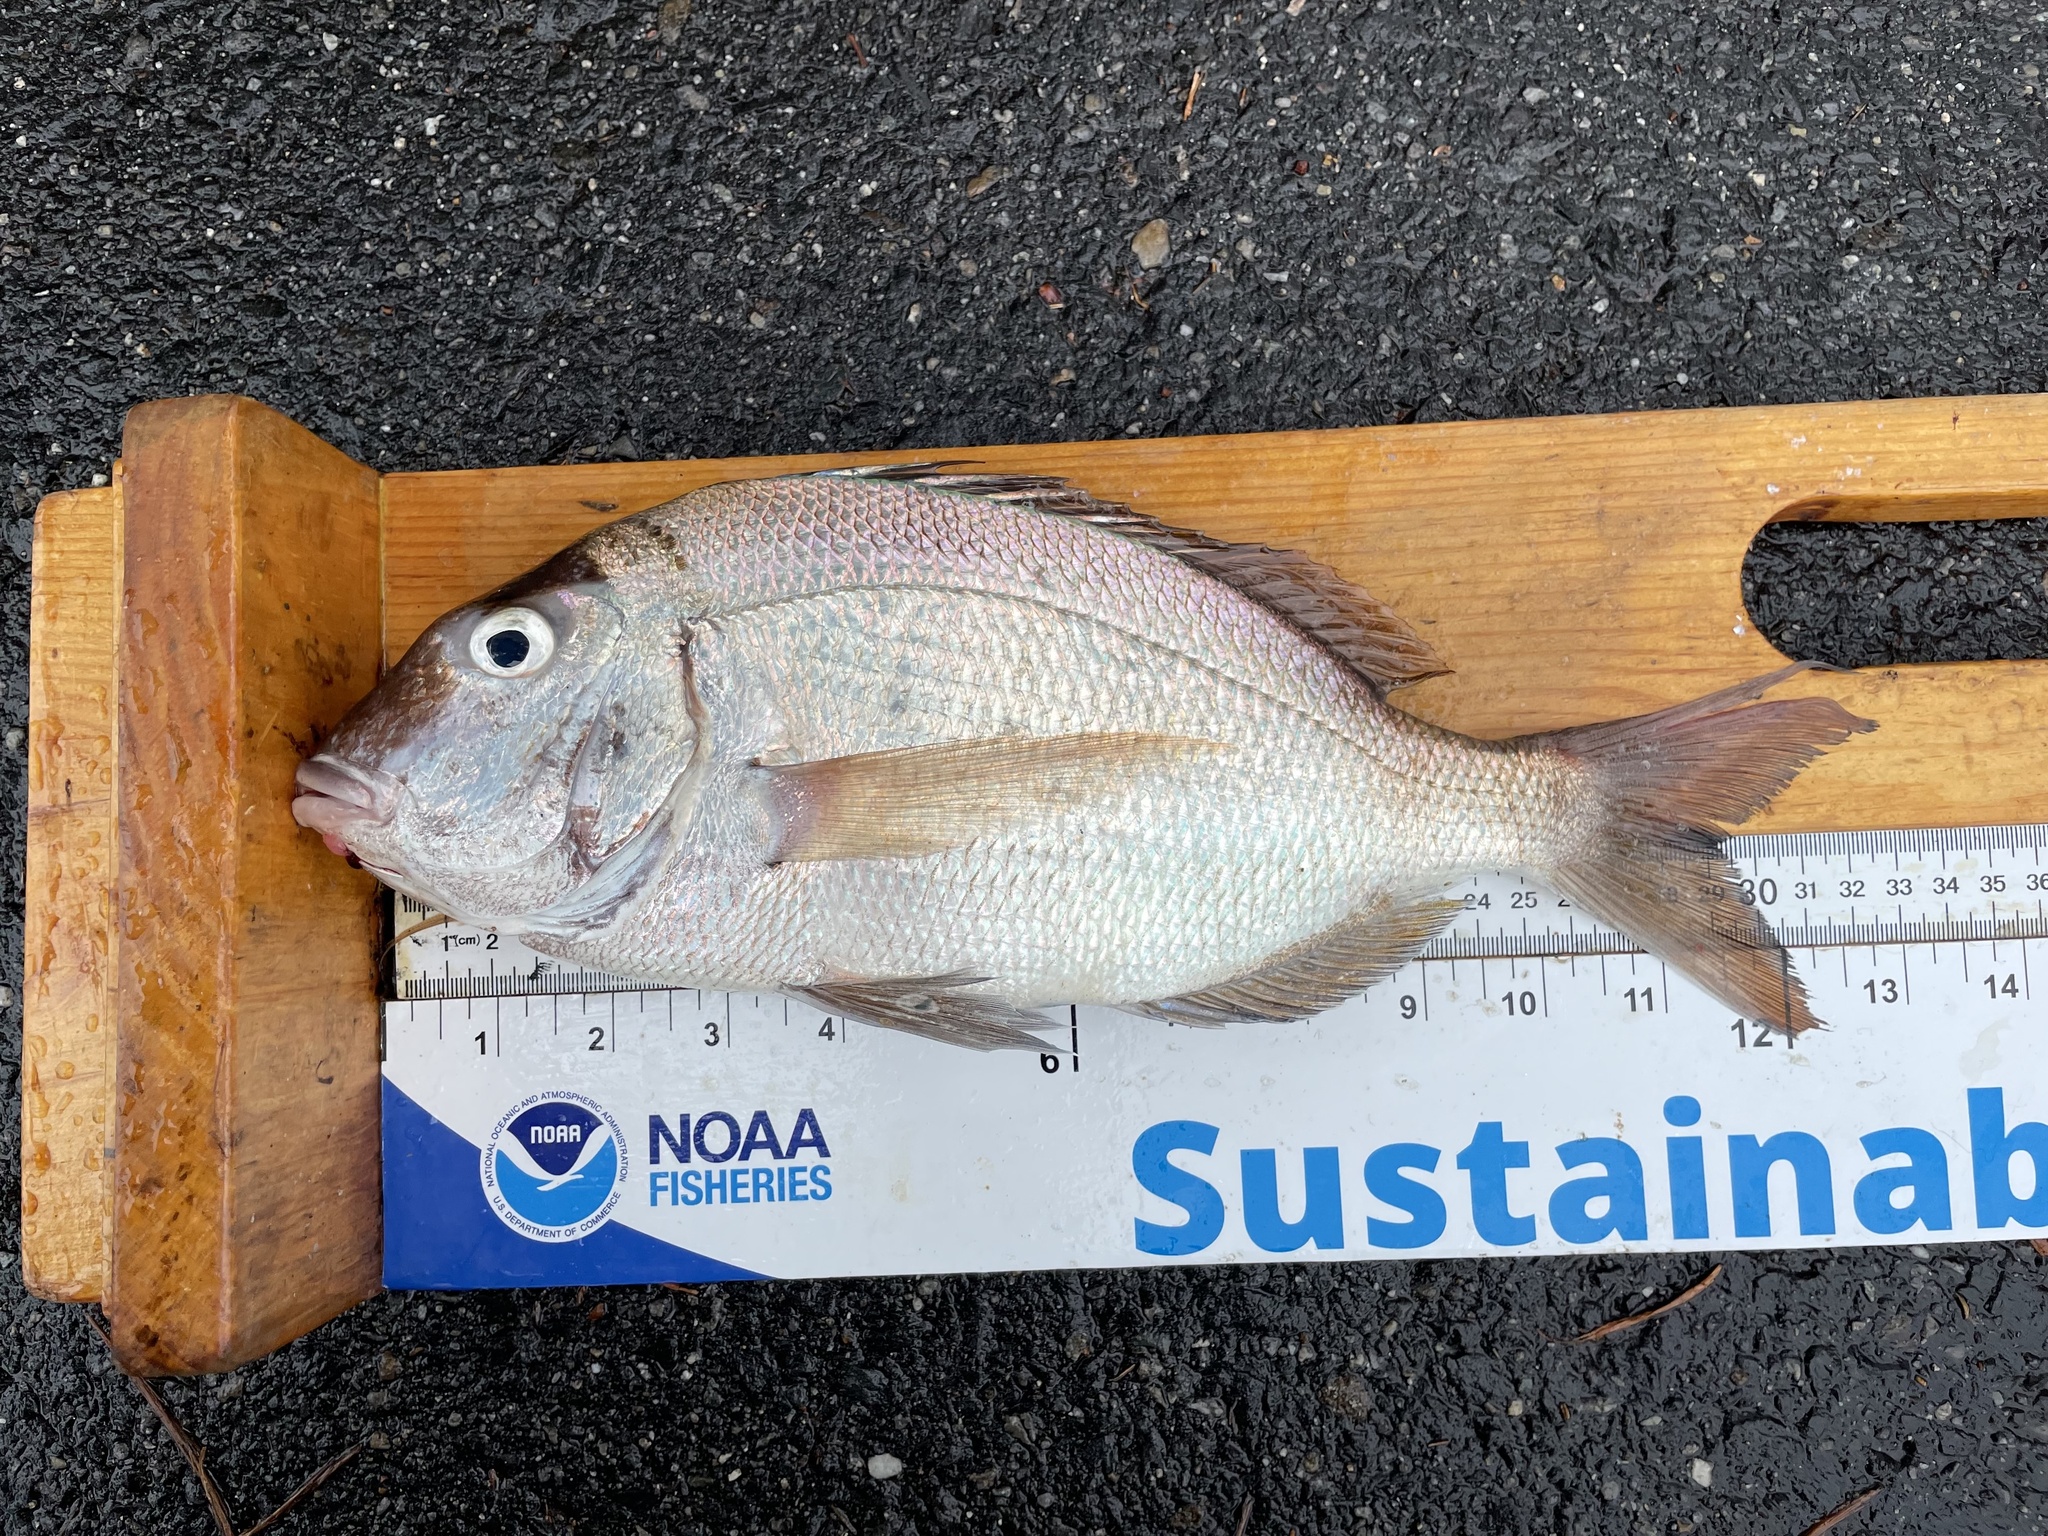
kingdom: Animalia
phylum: Chordata
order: Perciformes
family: Sparidae
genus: Stenotomus
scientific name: Stenotomus chrysops
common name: Scup
